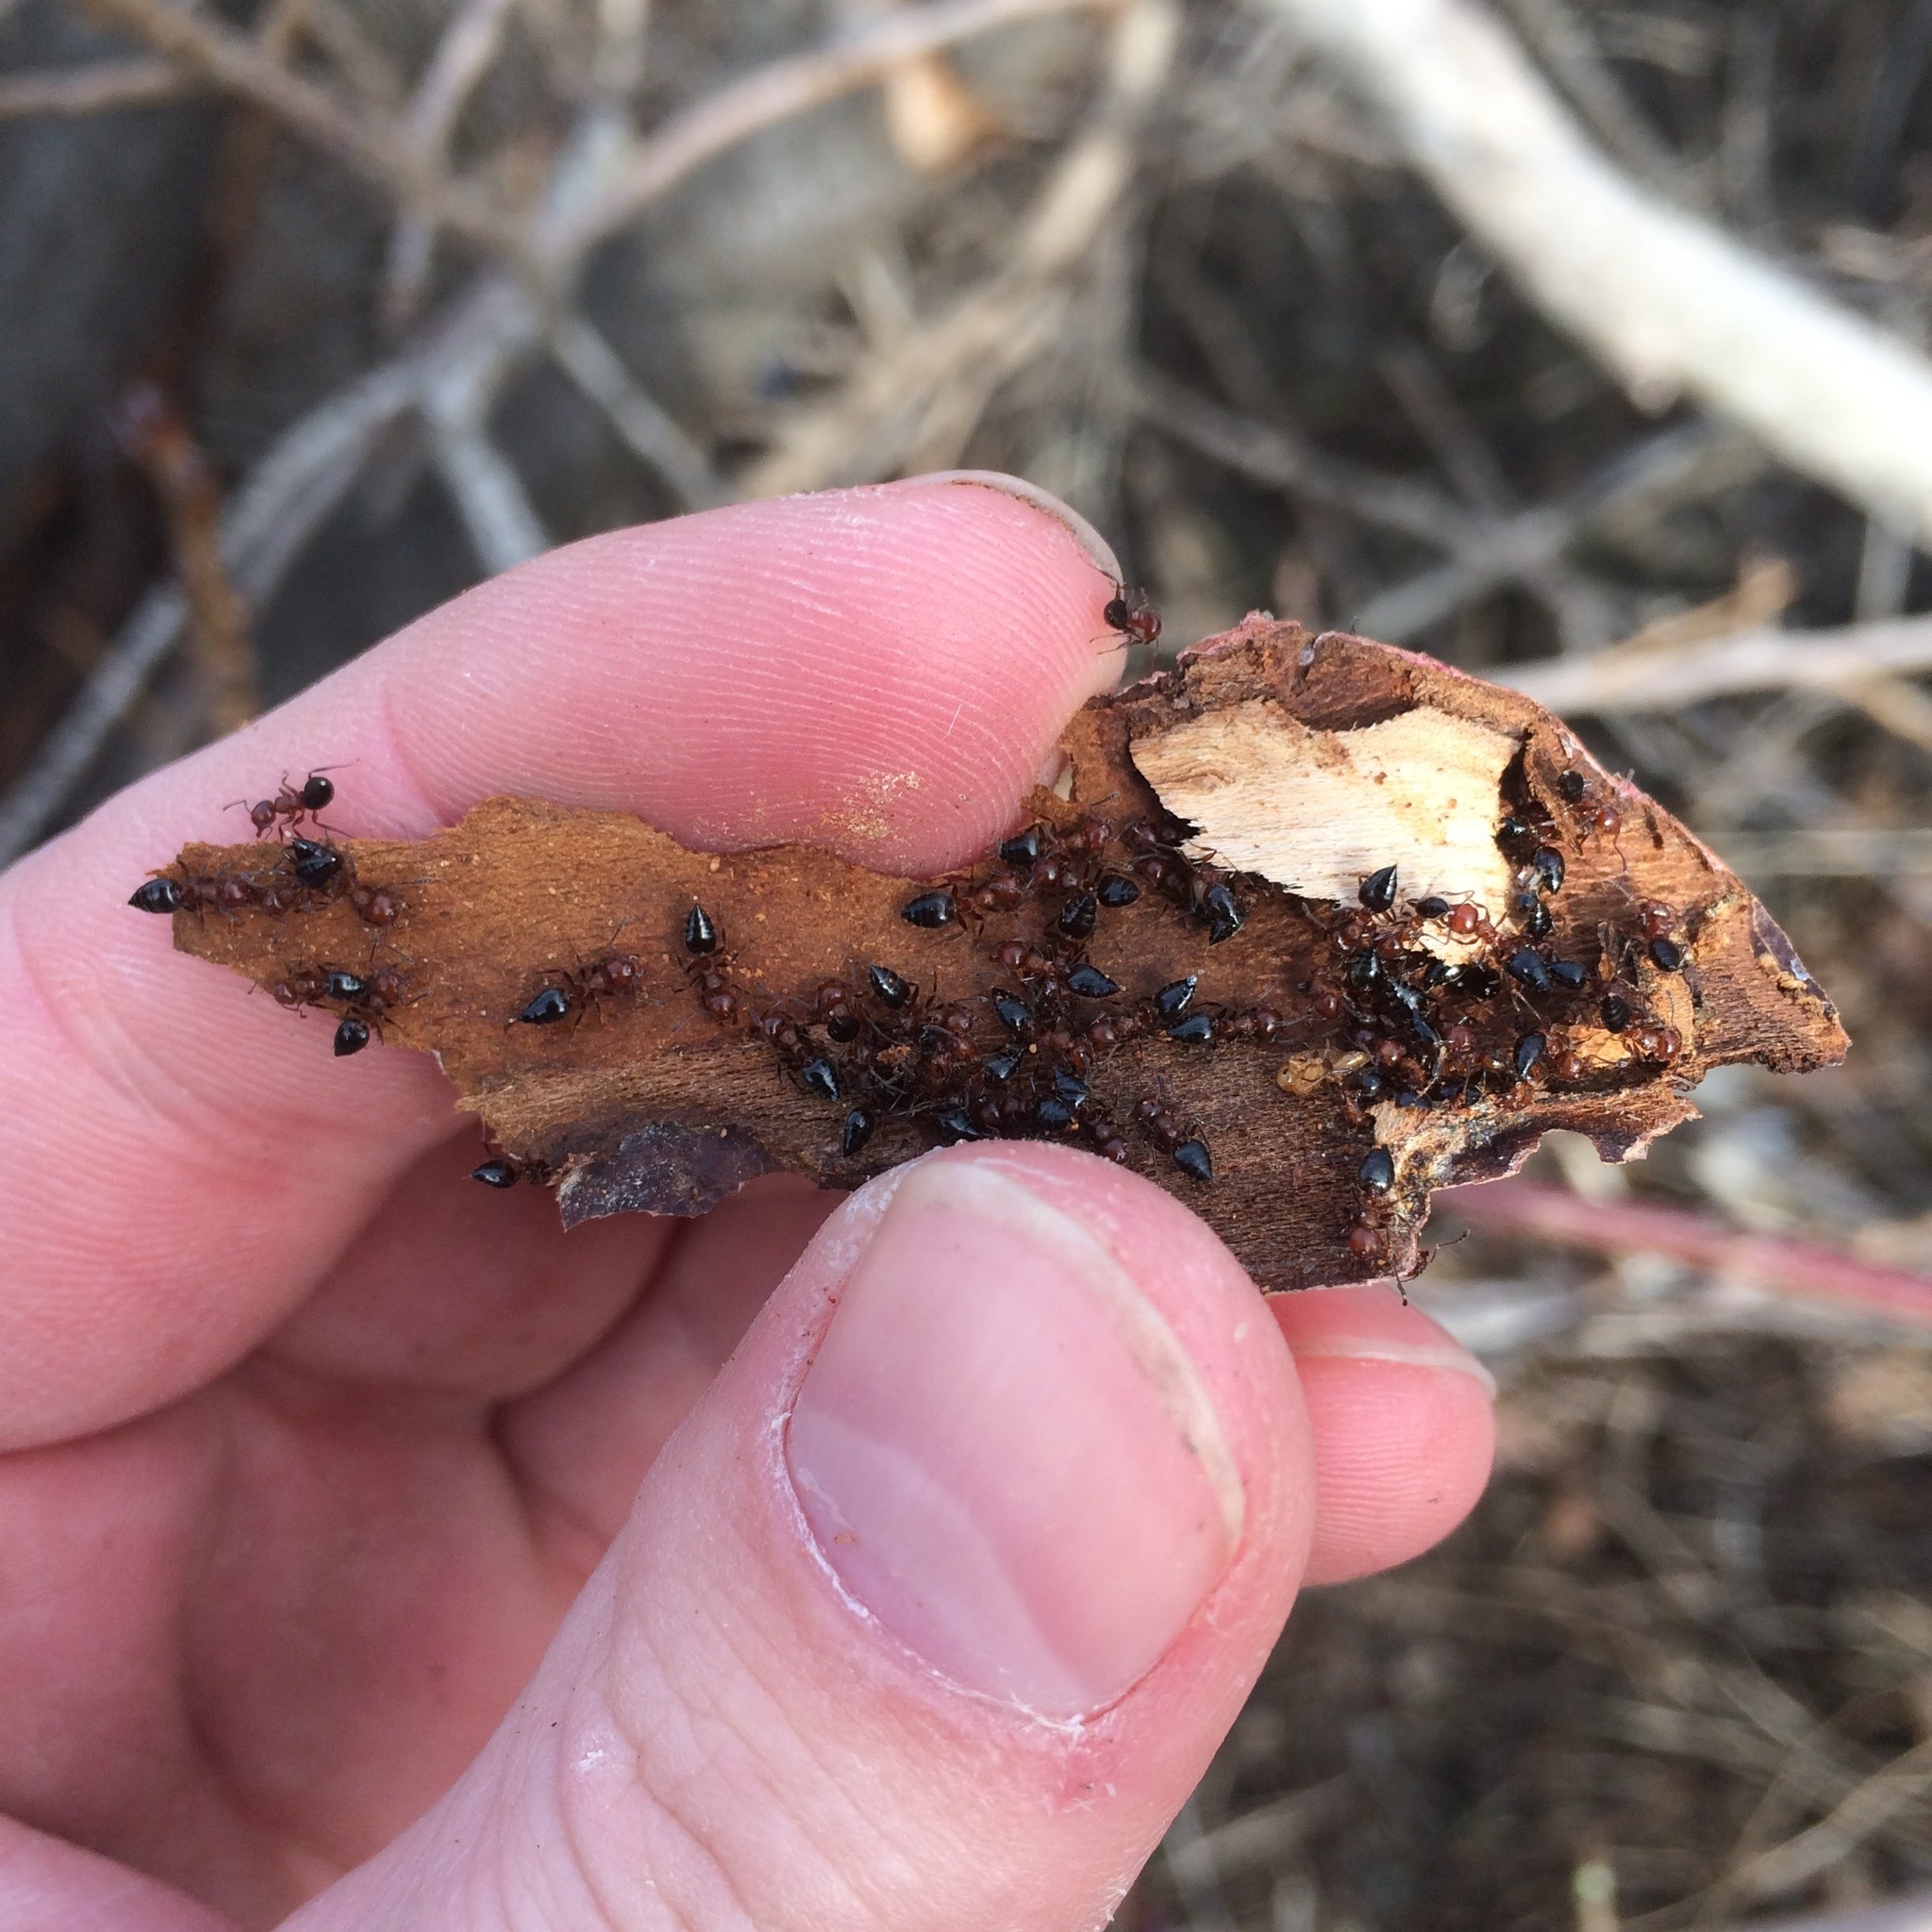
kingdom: Animalia
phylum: Arthropoda
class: Insecta
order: Hymenoptera
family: Formicidae
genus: Crematogaster
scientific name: Crematogaster schmidti
